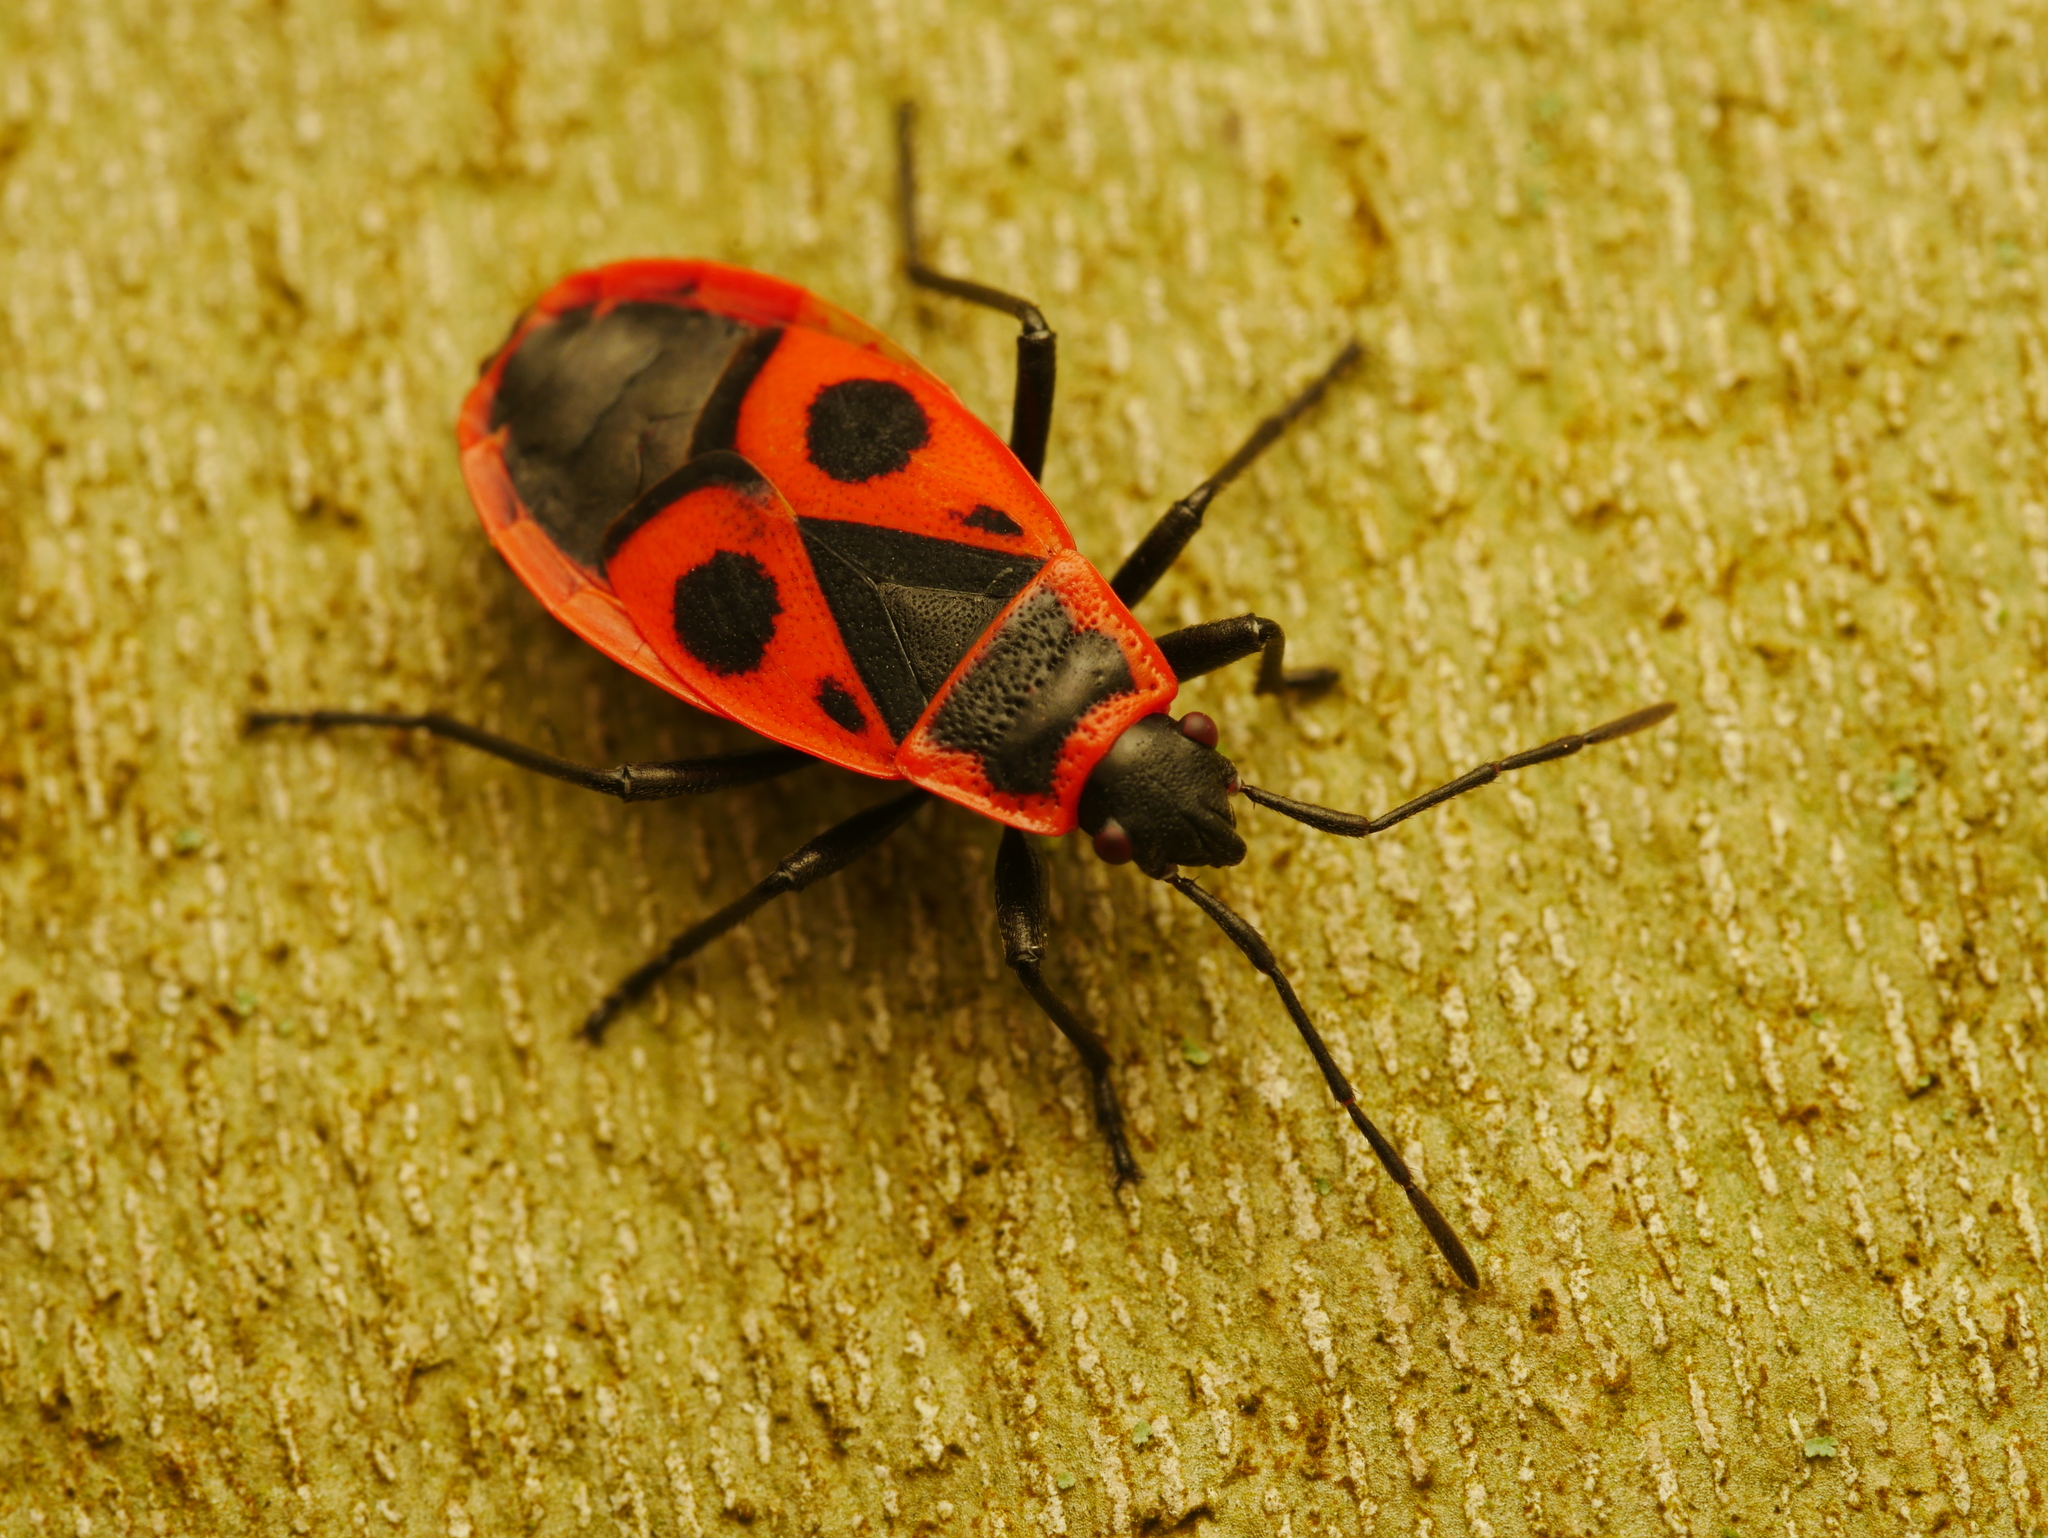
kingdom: Animalia
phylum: Arthropoda
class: Insecta
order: Hemiptera
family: Pyrrhocoridae
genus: Pyrrhocoris
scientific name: Pyrrhocoris apterus
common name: Firebug
